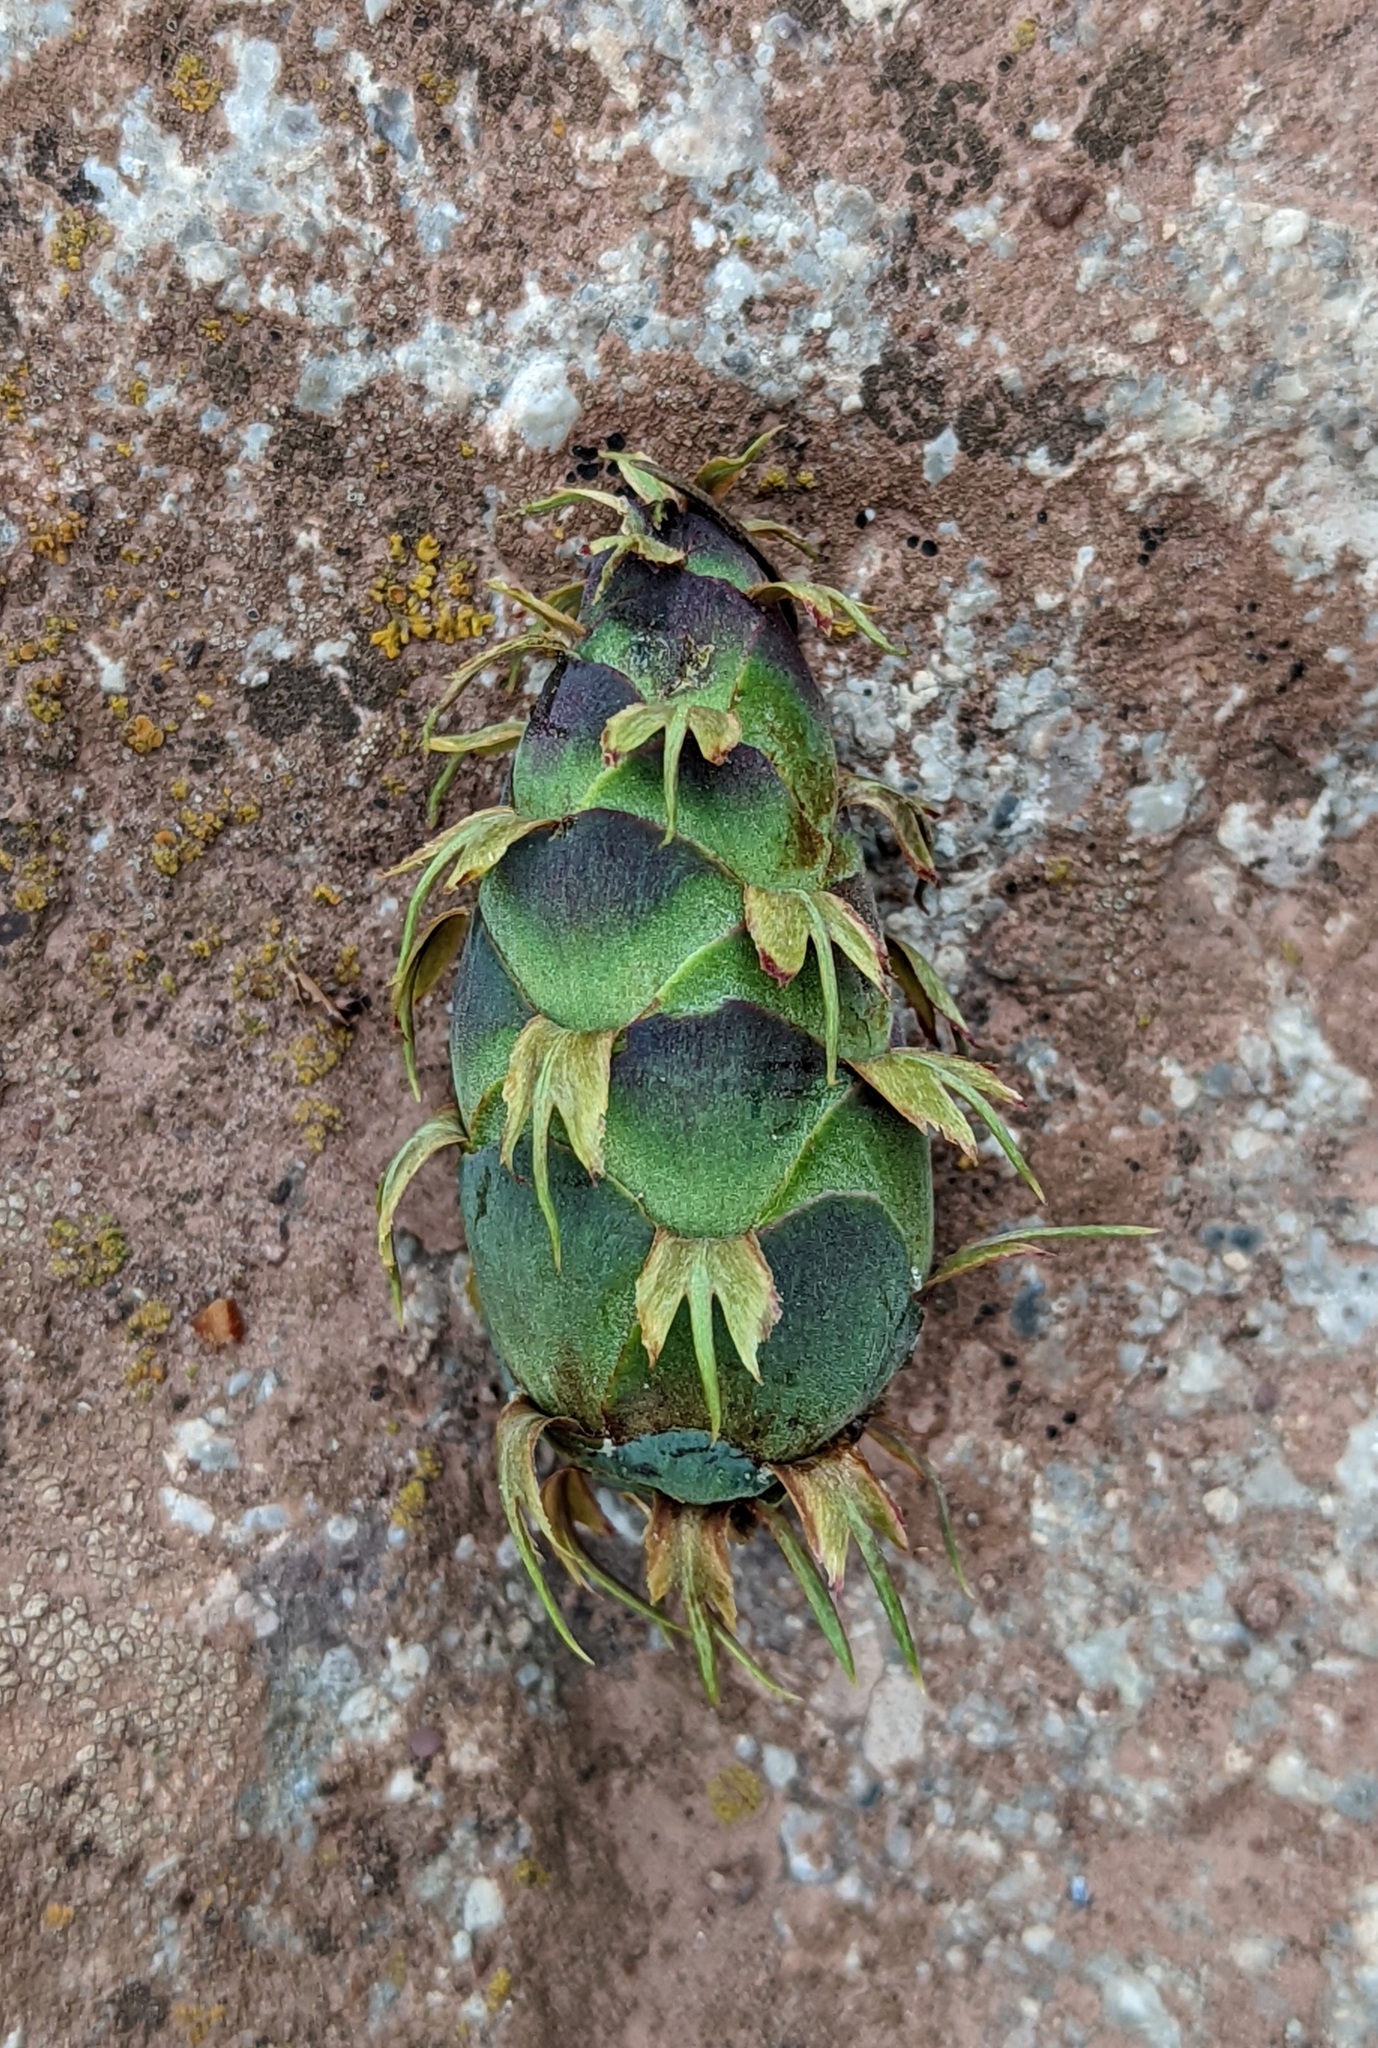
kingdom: Plantae
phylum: Tracheophyta
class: Pinopsida
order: Pinales
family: Pinaceae
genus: Pseudotsuga
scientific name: Pseudotsuga menziesii
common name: Douglas fir
